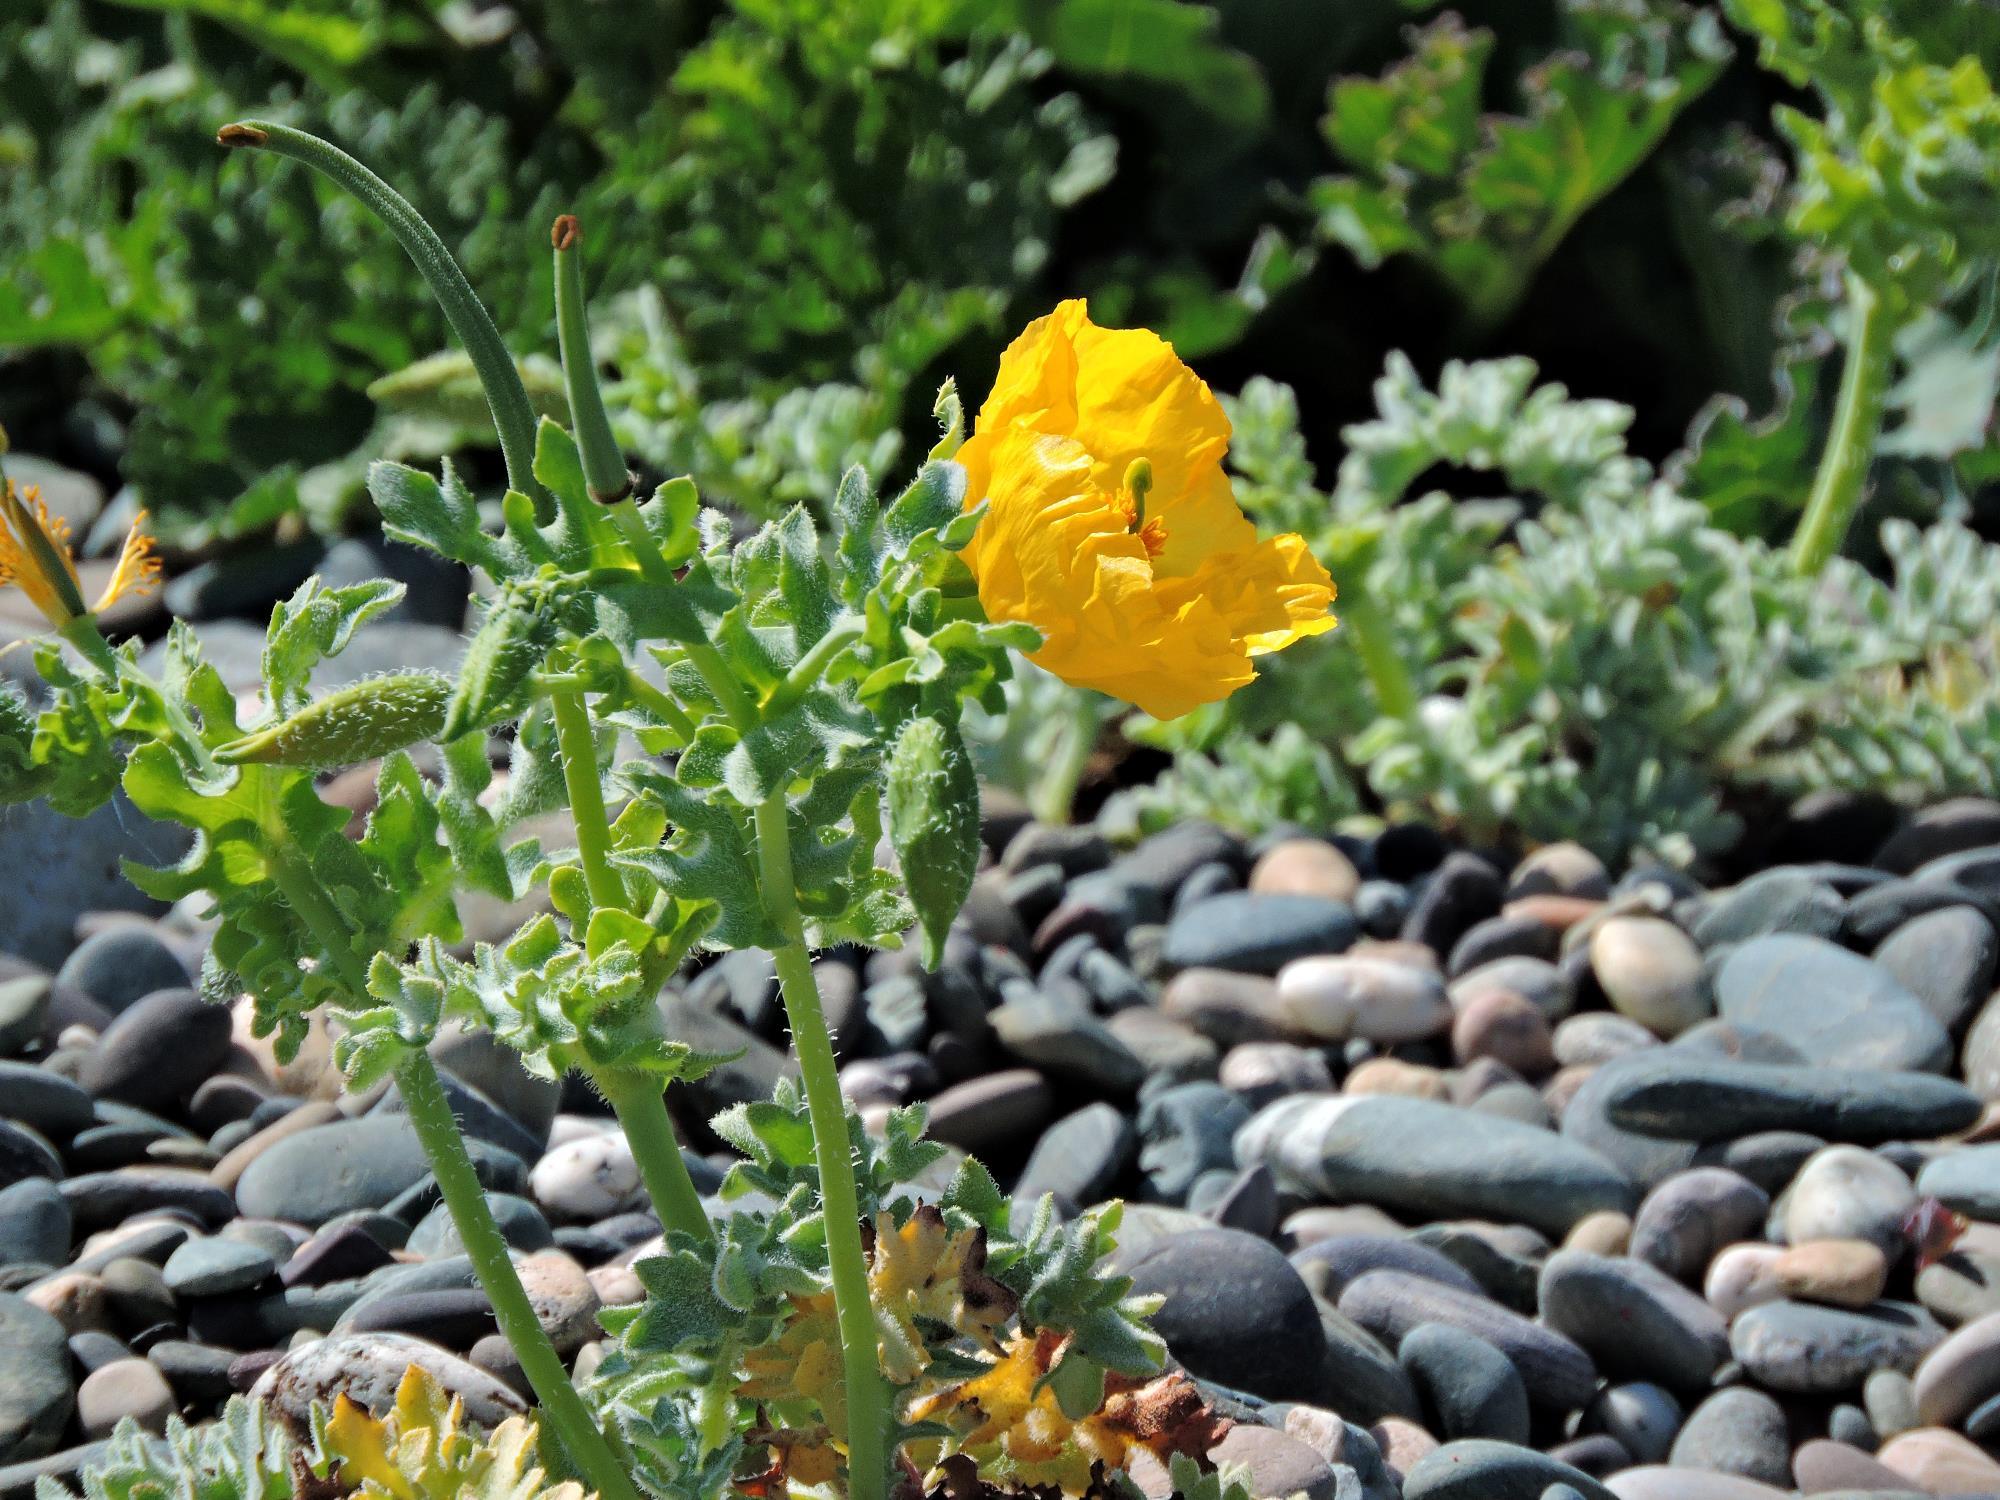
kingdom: Plantae
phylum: Tracheophyta
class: Magnoliopsida
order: Ranunculales
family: Papaveraceae
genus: Glaucium
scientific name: Glaucium flavum
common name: Yellow horned-poppy
